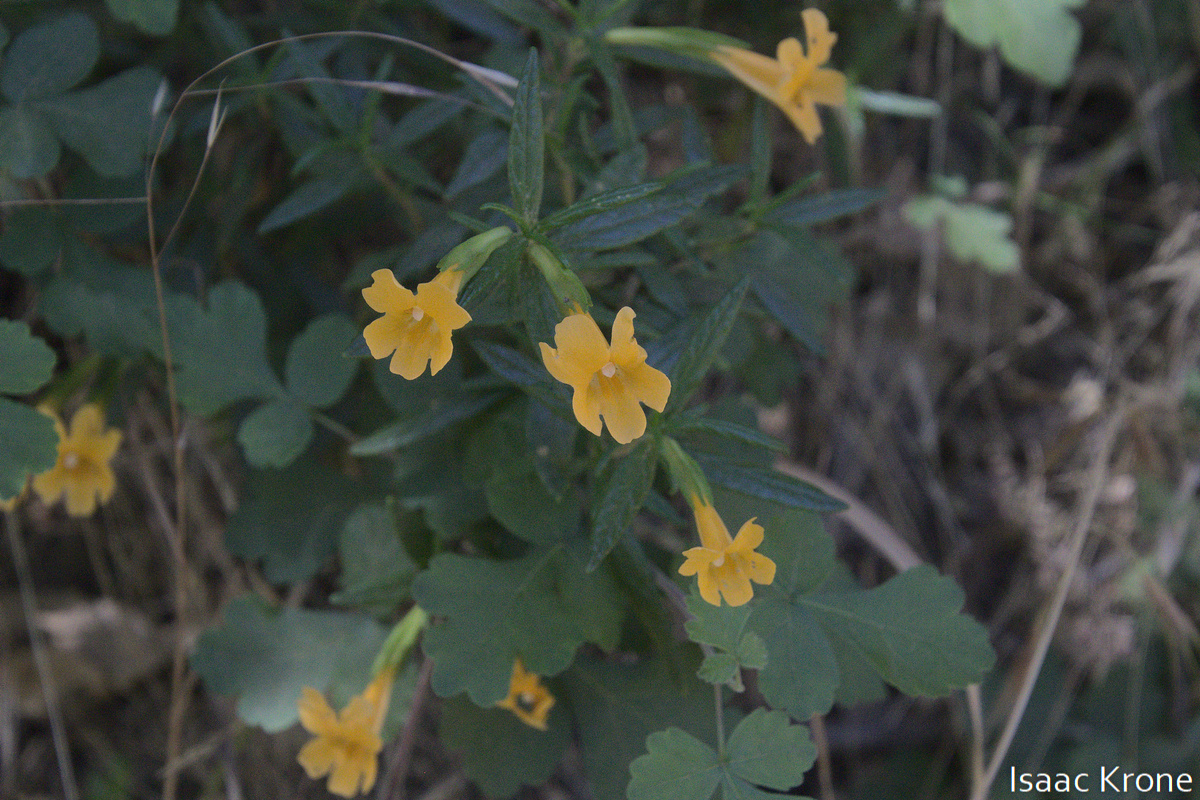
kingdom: Plantae
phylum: Tracheophyta
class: Magnoliopsida
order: Lamiales
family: Phrymaceae
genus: Diplacus
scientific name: Diplacus aurantiacus
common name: Bush monkey-flower
